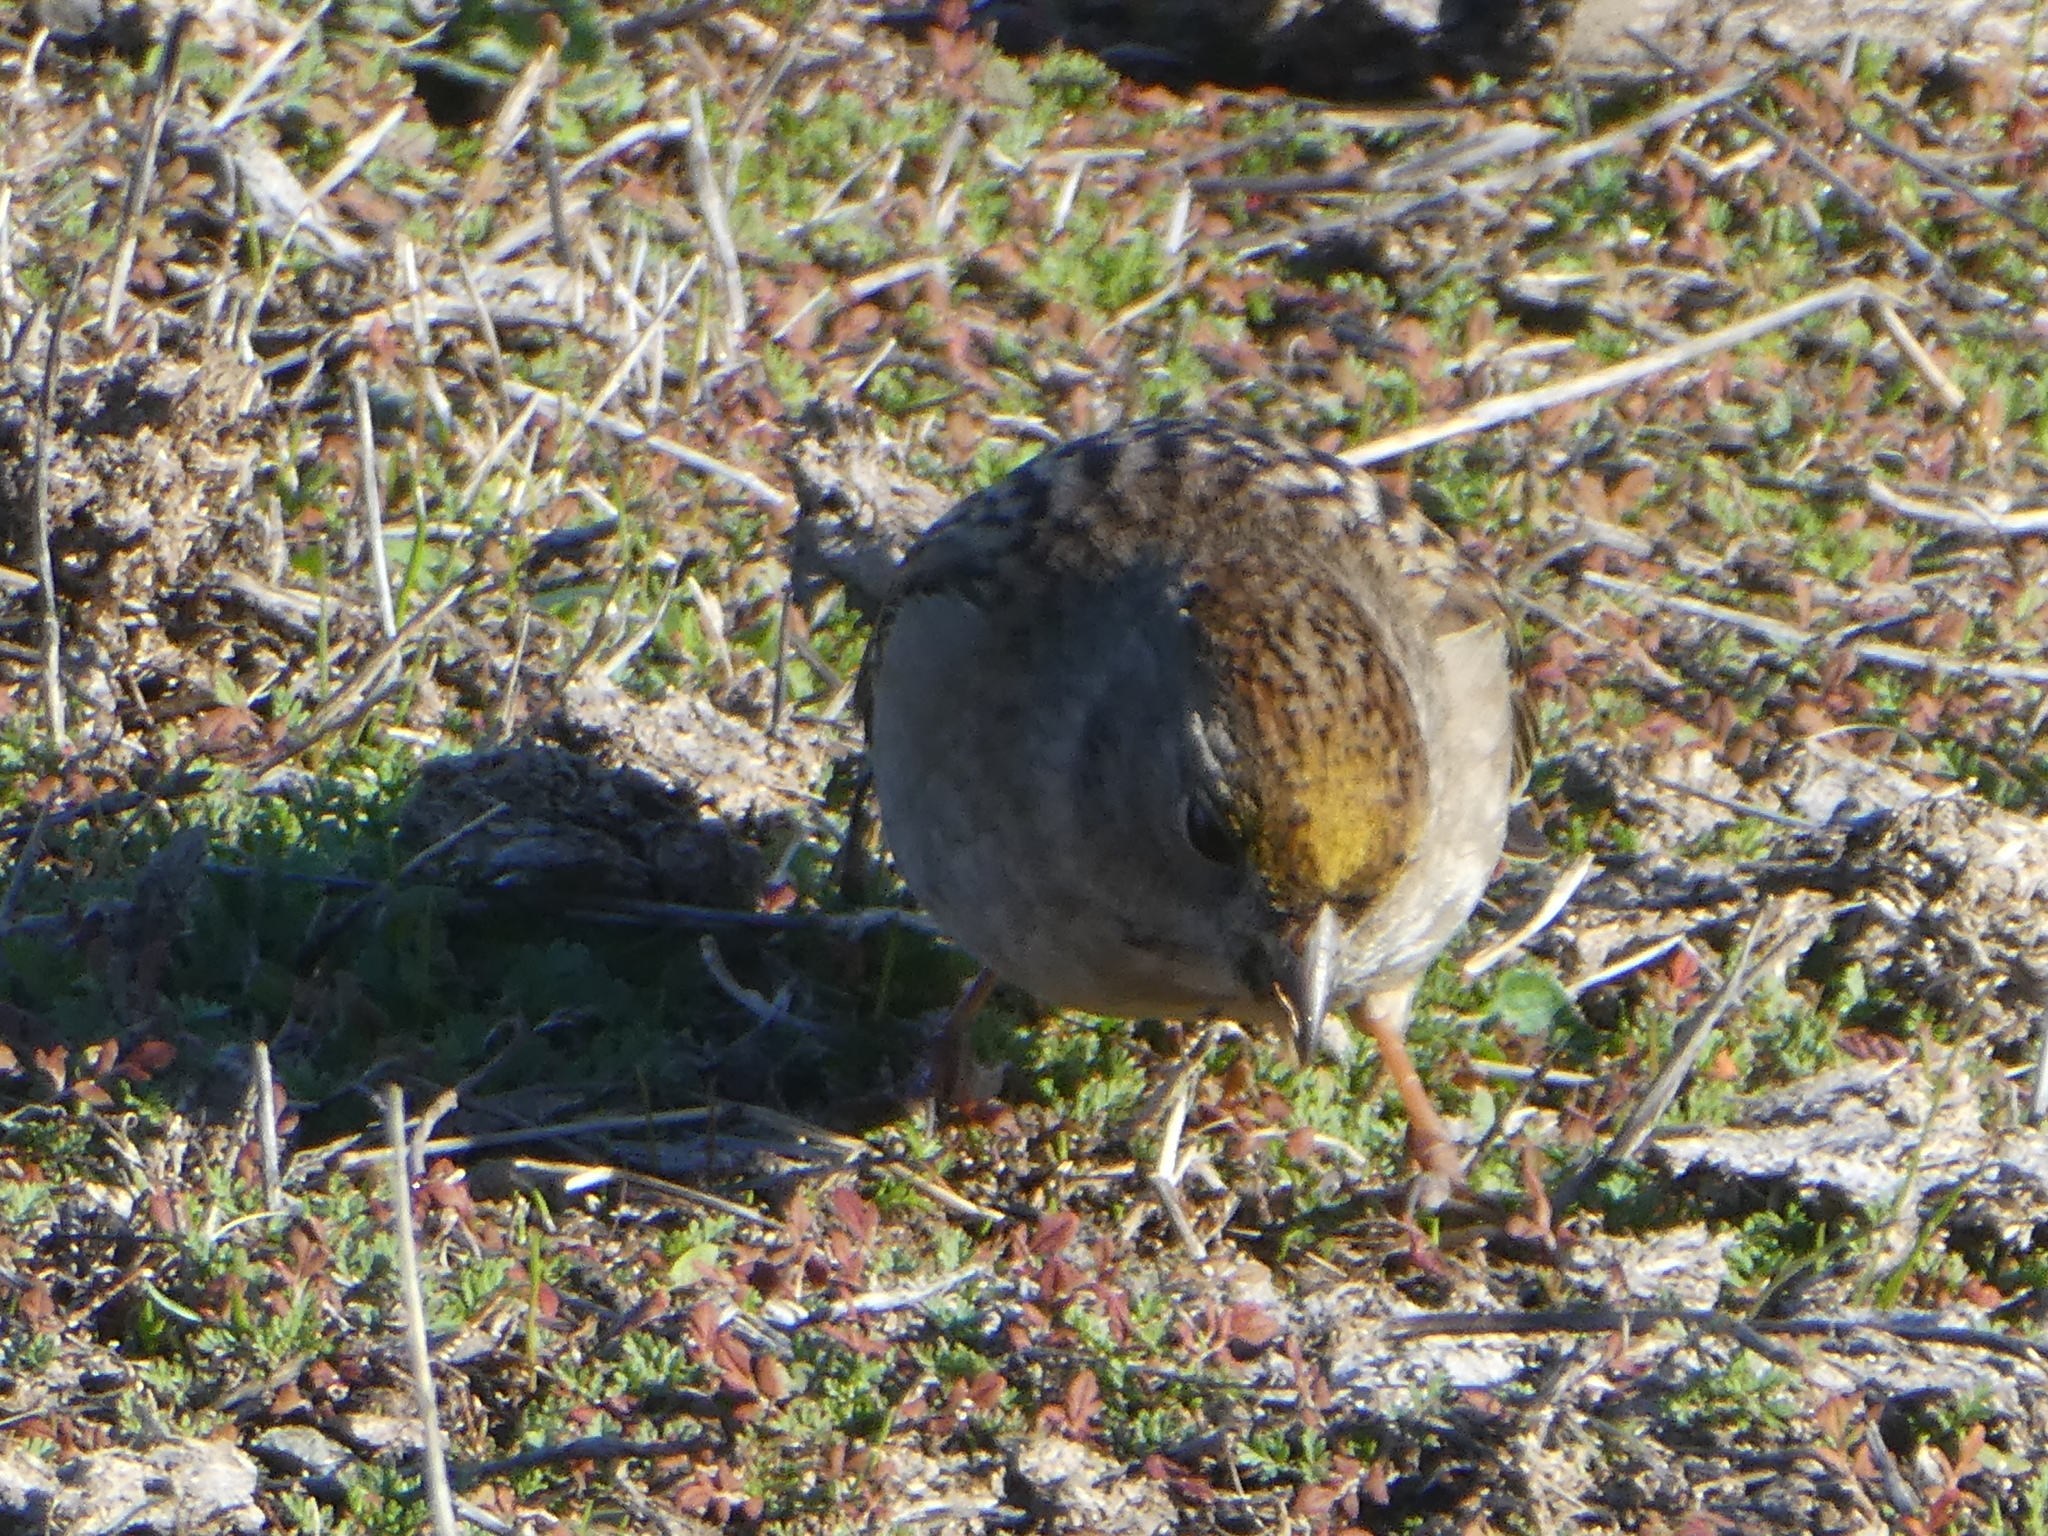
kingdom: Animalia
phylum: Chordata
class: Aves
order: Passeriformes
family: Passerellidae
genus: Zonotrichia
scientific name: Zonotrichia atricapilla
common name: Golden-crowned sparrow
